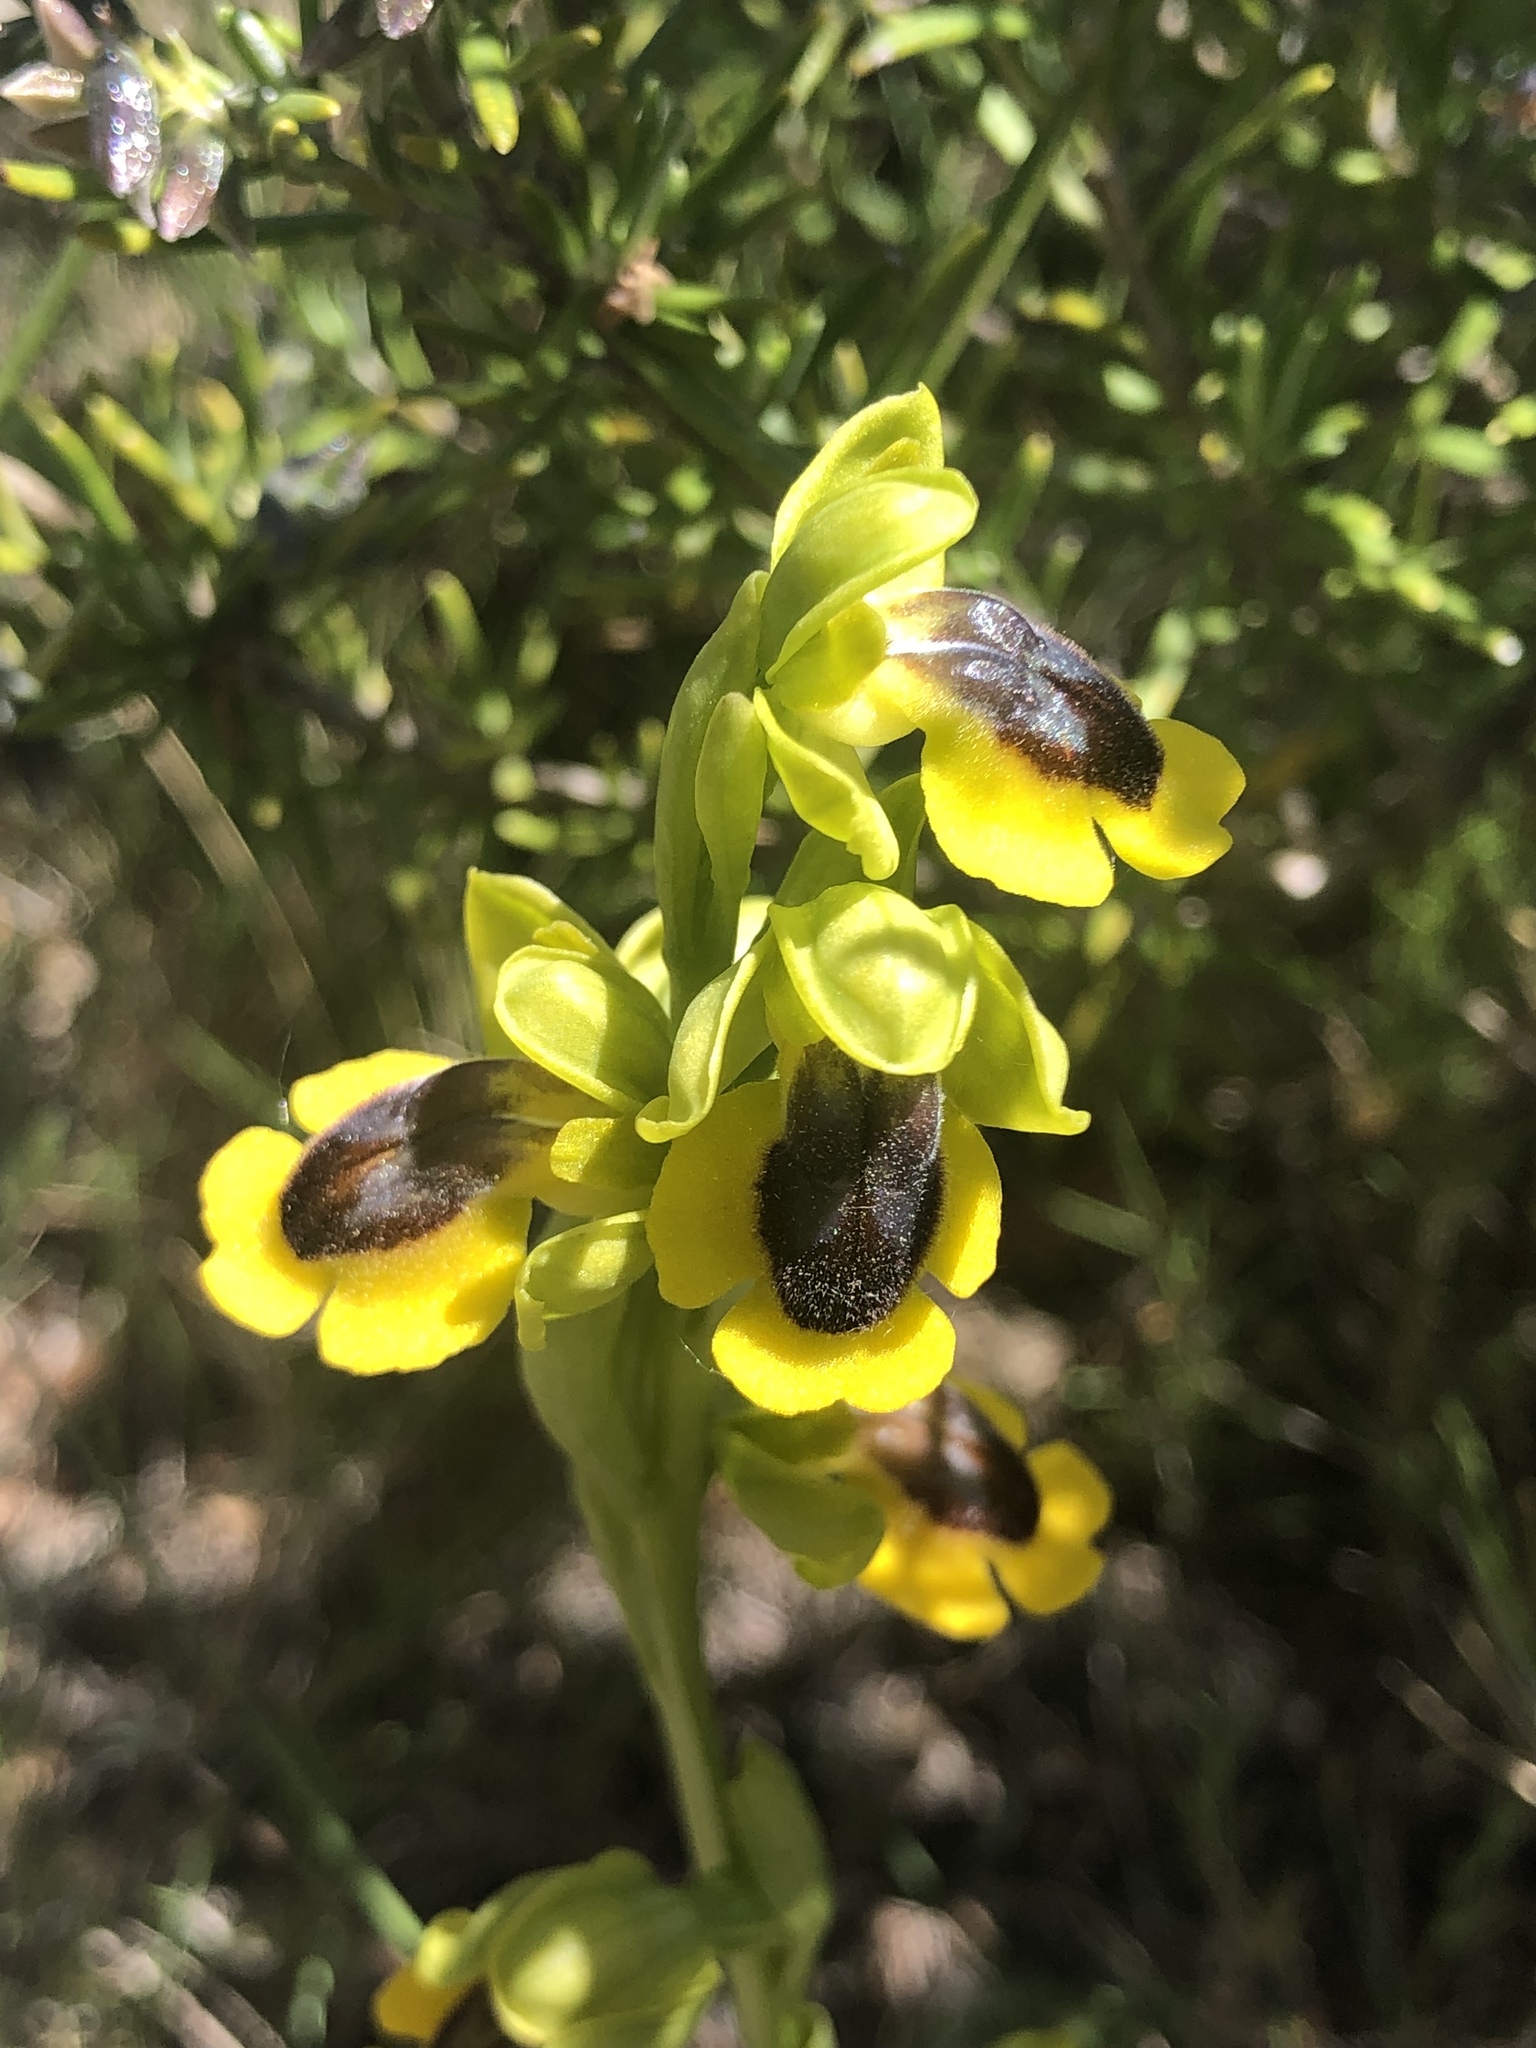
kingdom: Plantae
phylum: Tracheophyta
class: Liliopsida
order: Asparagales
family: Orchidaceae
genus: Ophrys
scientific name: Ophrys lutea
